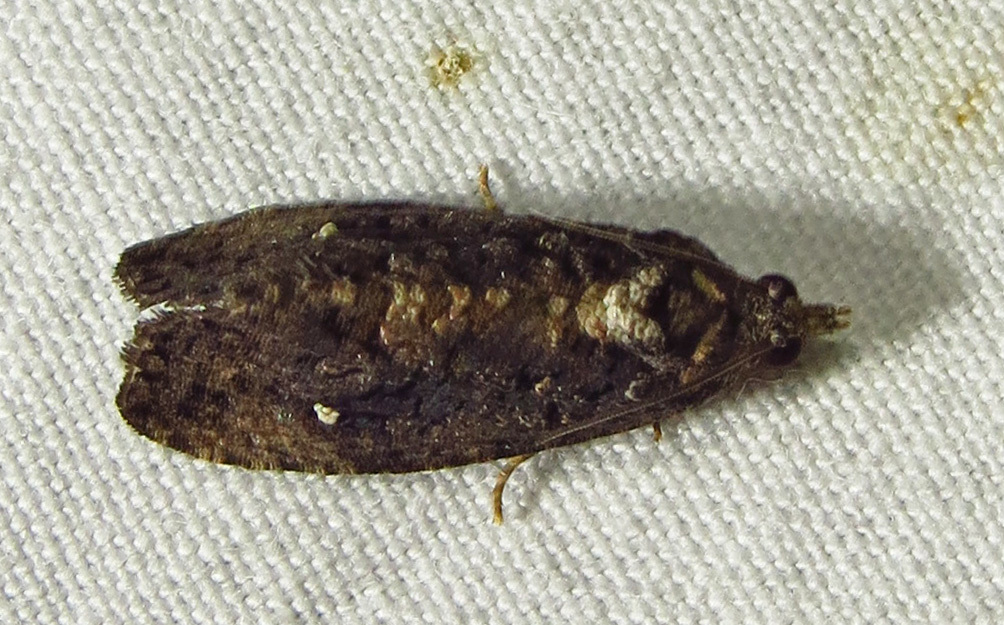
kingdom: Animalia
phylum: Arthropoda
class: Insecta
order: Lepidoptera
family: Tortricidae
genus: Gymnandrosoma
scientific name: Gymnandrosoma punctidiscanum
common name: Dotted ecdytolopha moth
